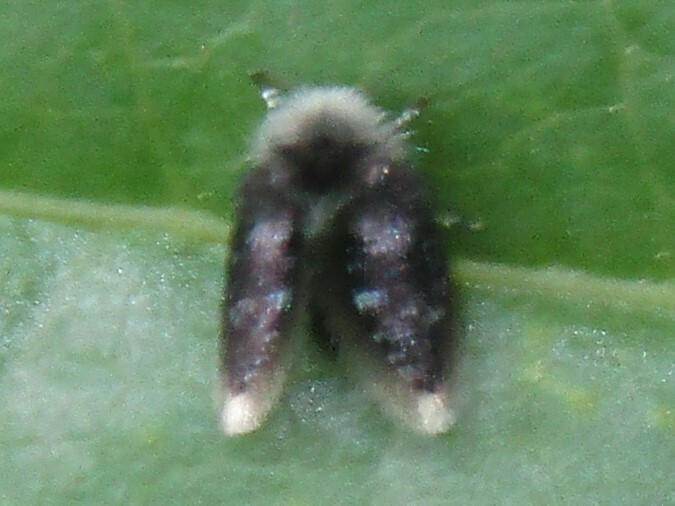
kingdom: Animalia
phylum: Arthropoda
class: Insecta
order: Diptera
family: Psychodidae
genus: Setomima
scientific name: Setomima
